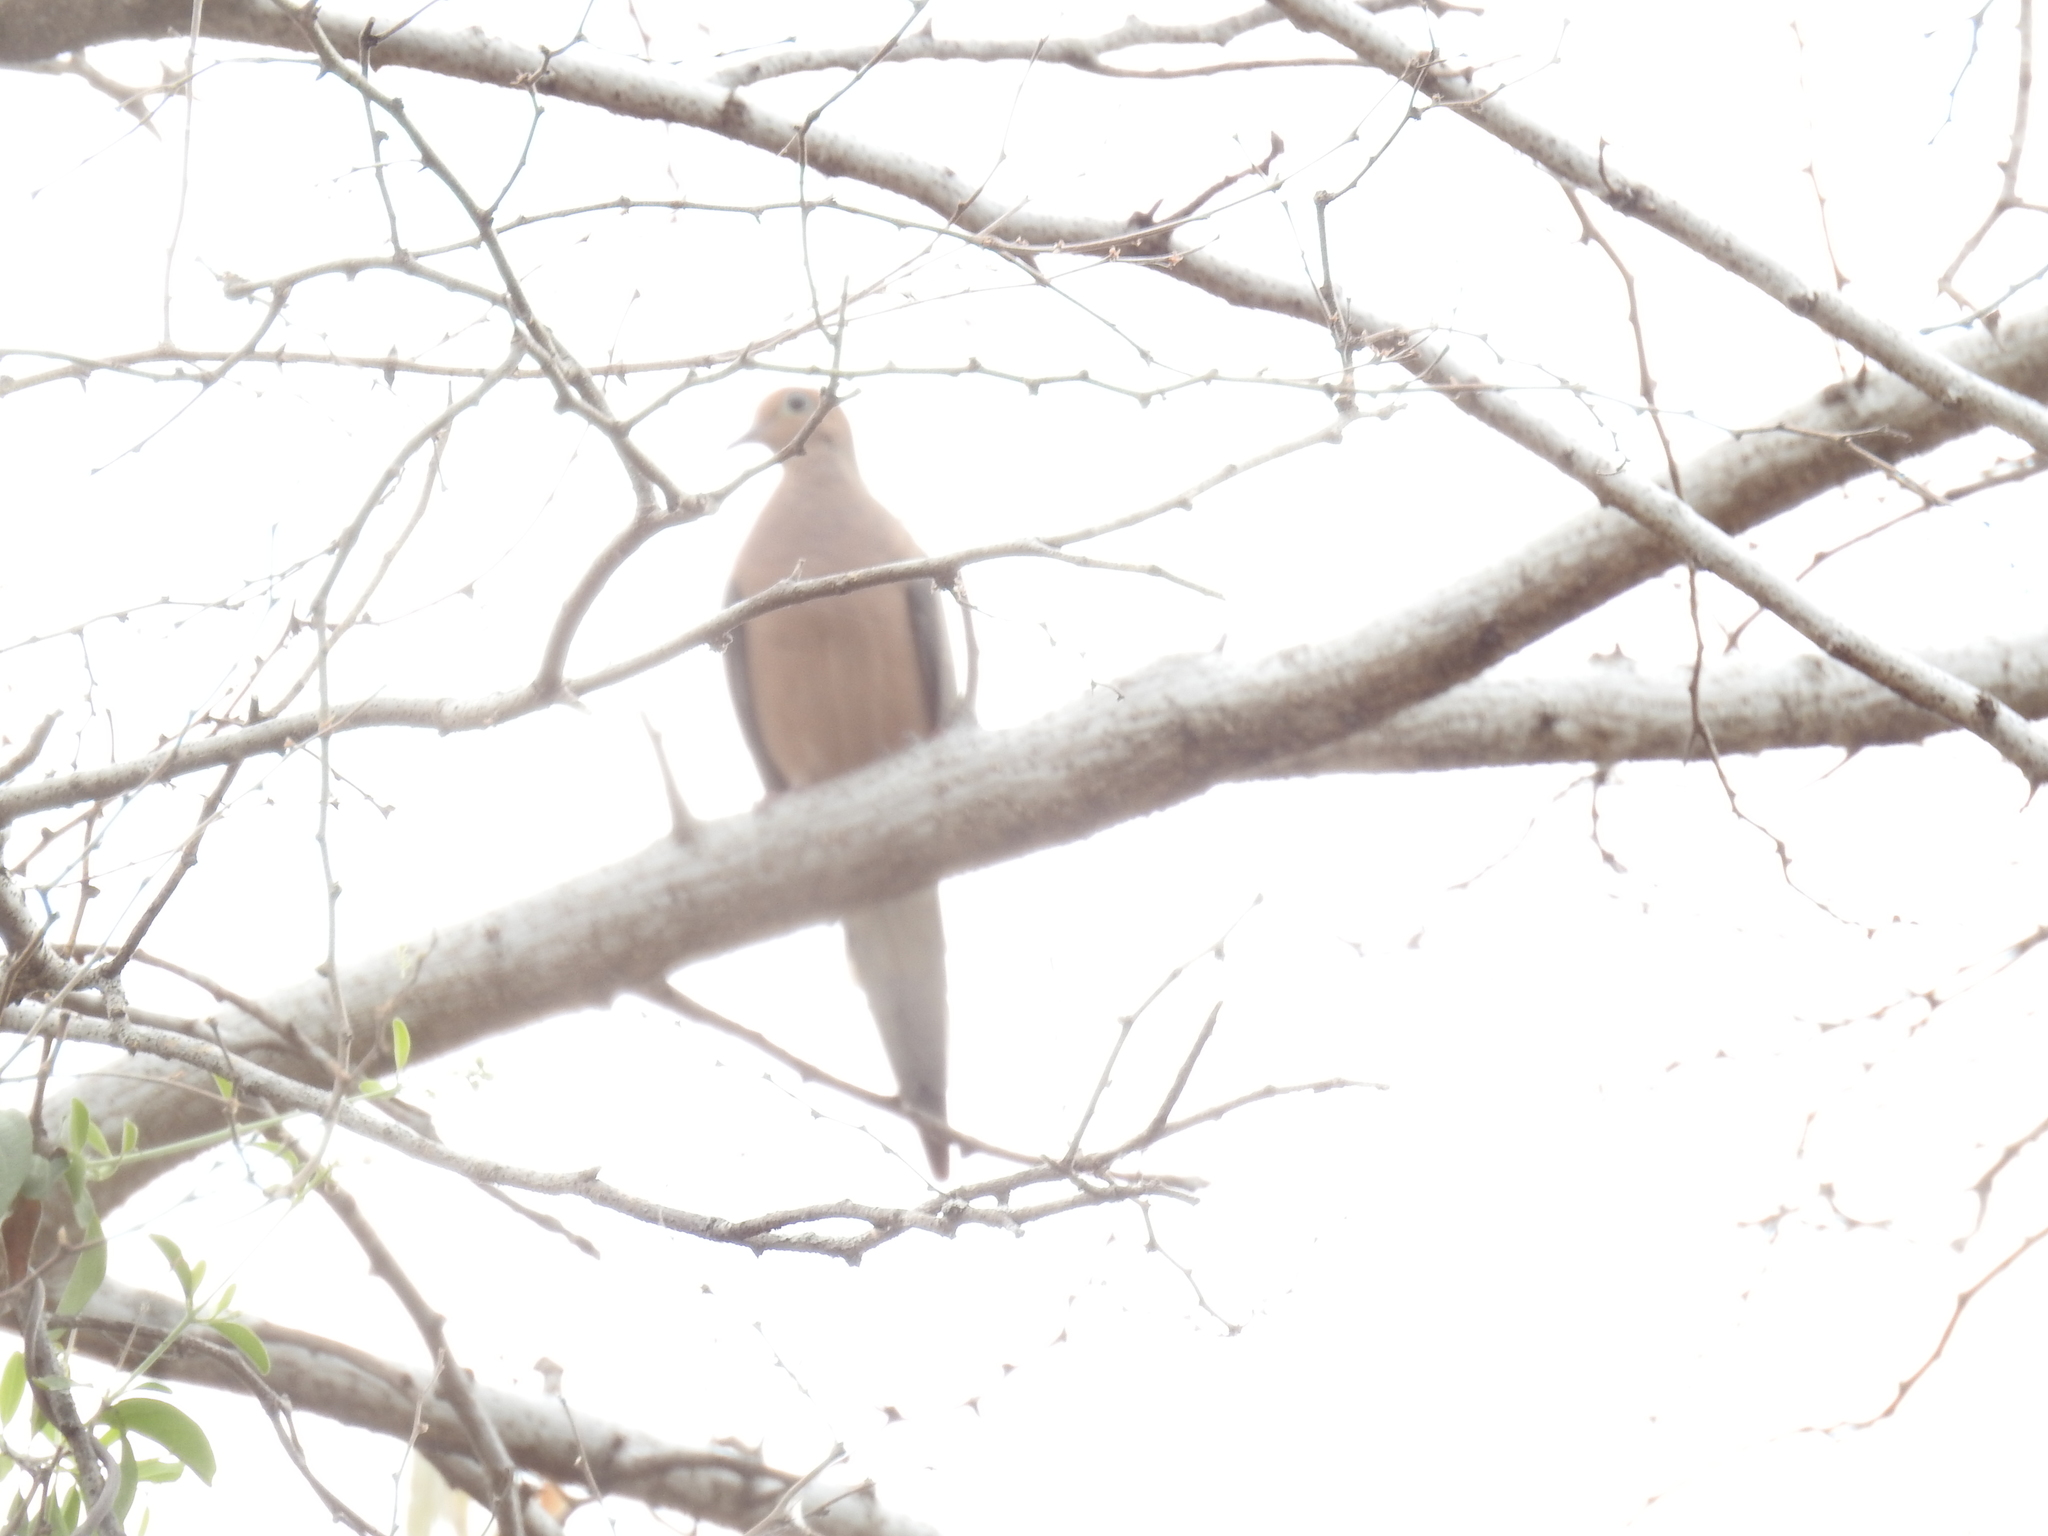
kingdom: Animalia
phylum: Chordata
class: Aves
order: Columbiformes
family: Columbidae
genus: Zenaida
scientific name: Zenaida macroura
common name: Mourning dove
